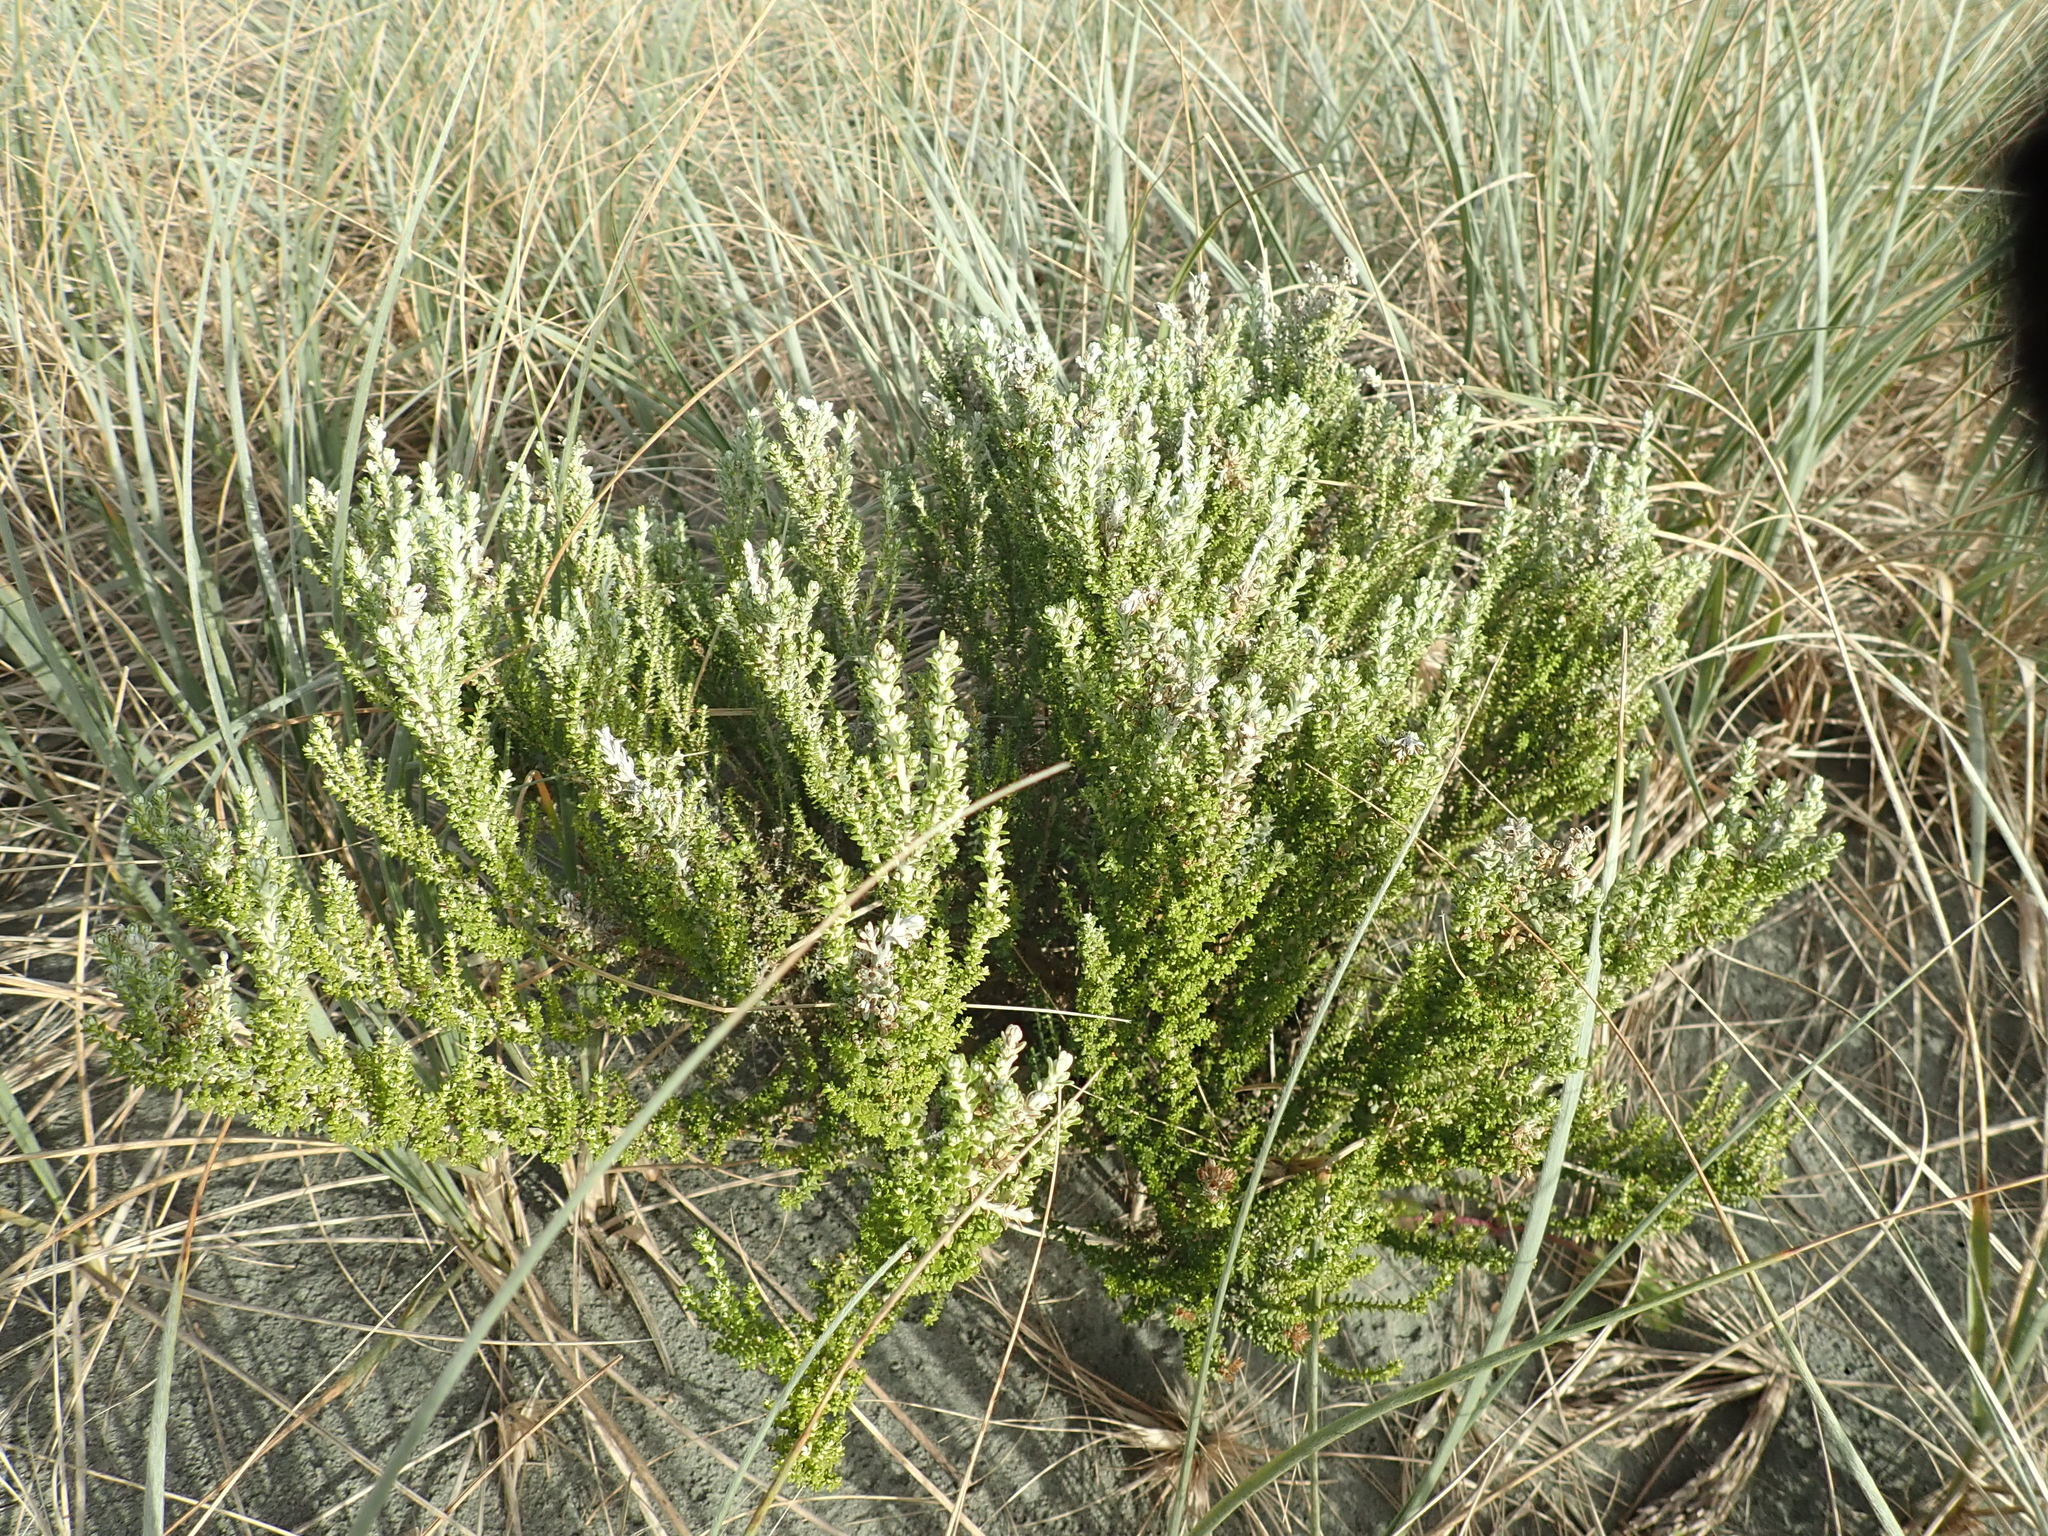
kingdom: Plantae
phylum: Tracheophyta
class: Magnoliopsida
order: Asterales
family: Asteraceae
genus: Ozothamnus
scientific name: Ozothamnus leptophyllus
